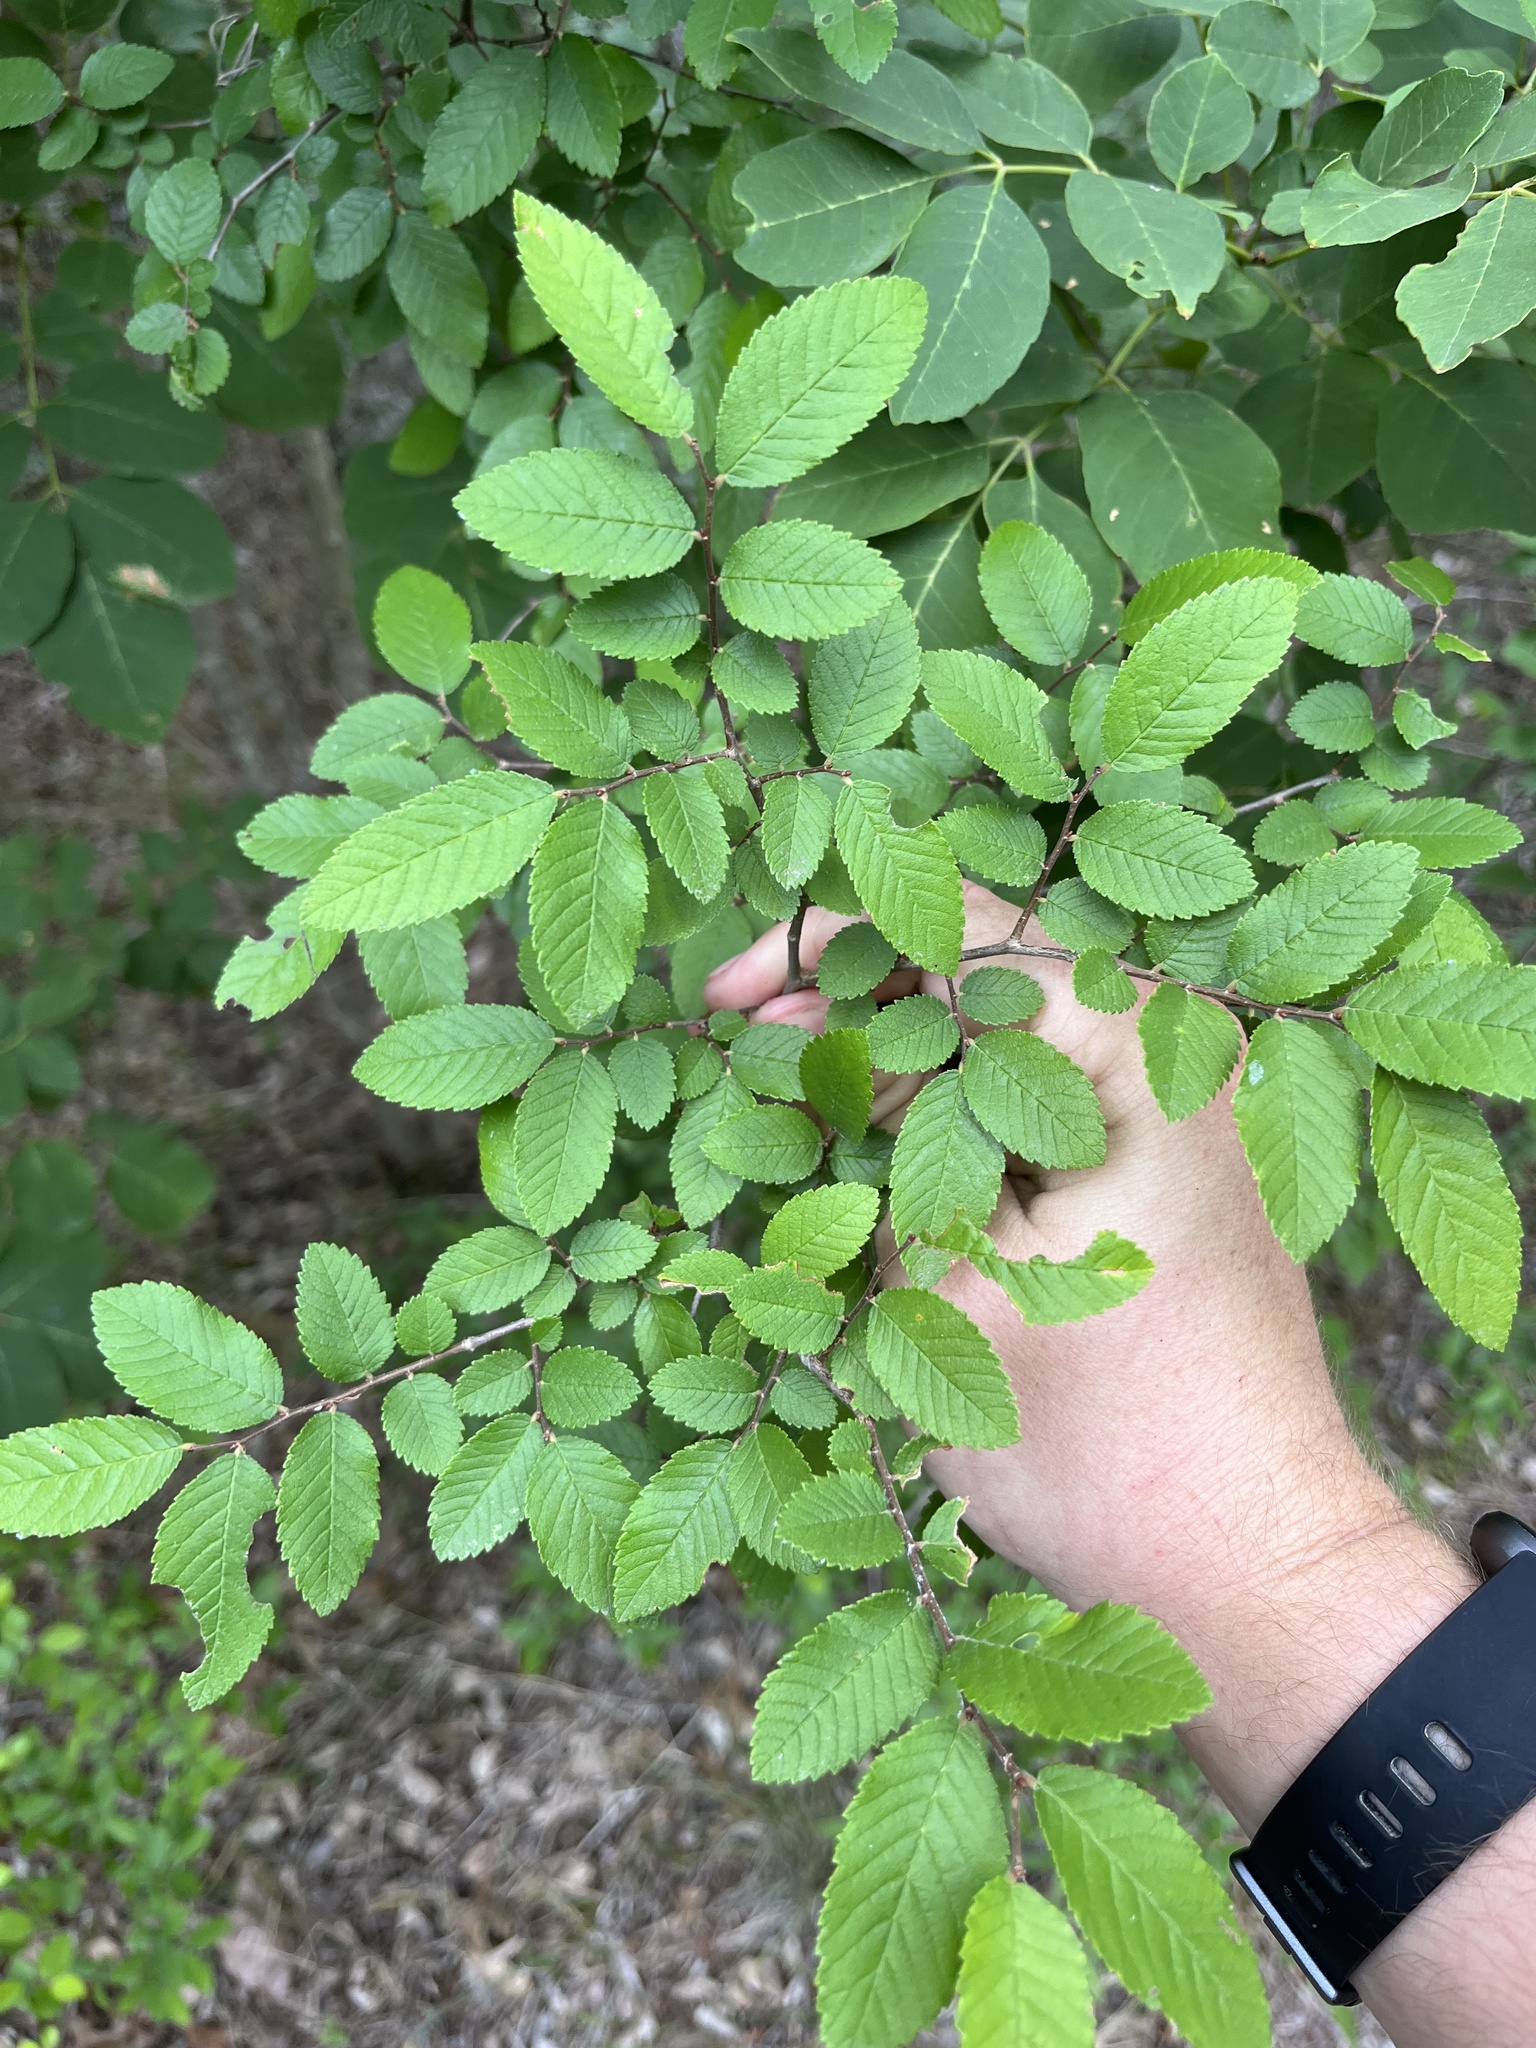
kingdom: Plantae
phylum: Tracheophyta
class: Magnoliopsida
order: Rosales
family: Ulmaceae
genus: Ulmus
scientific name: Ulmus crassifolia
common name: Basket elm
